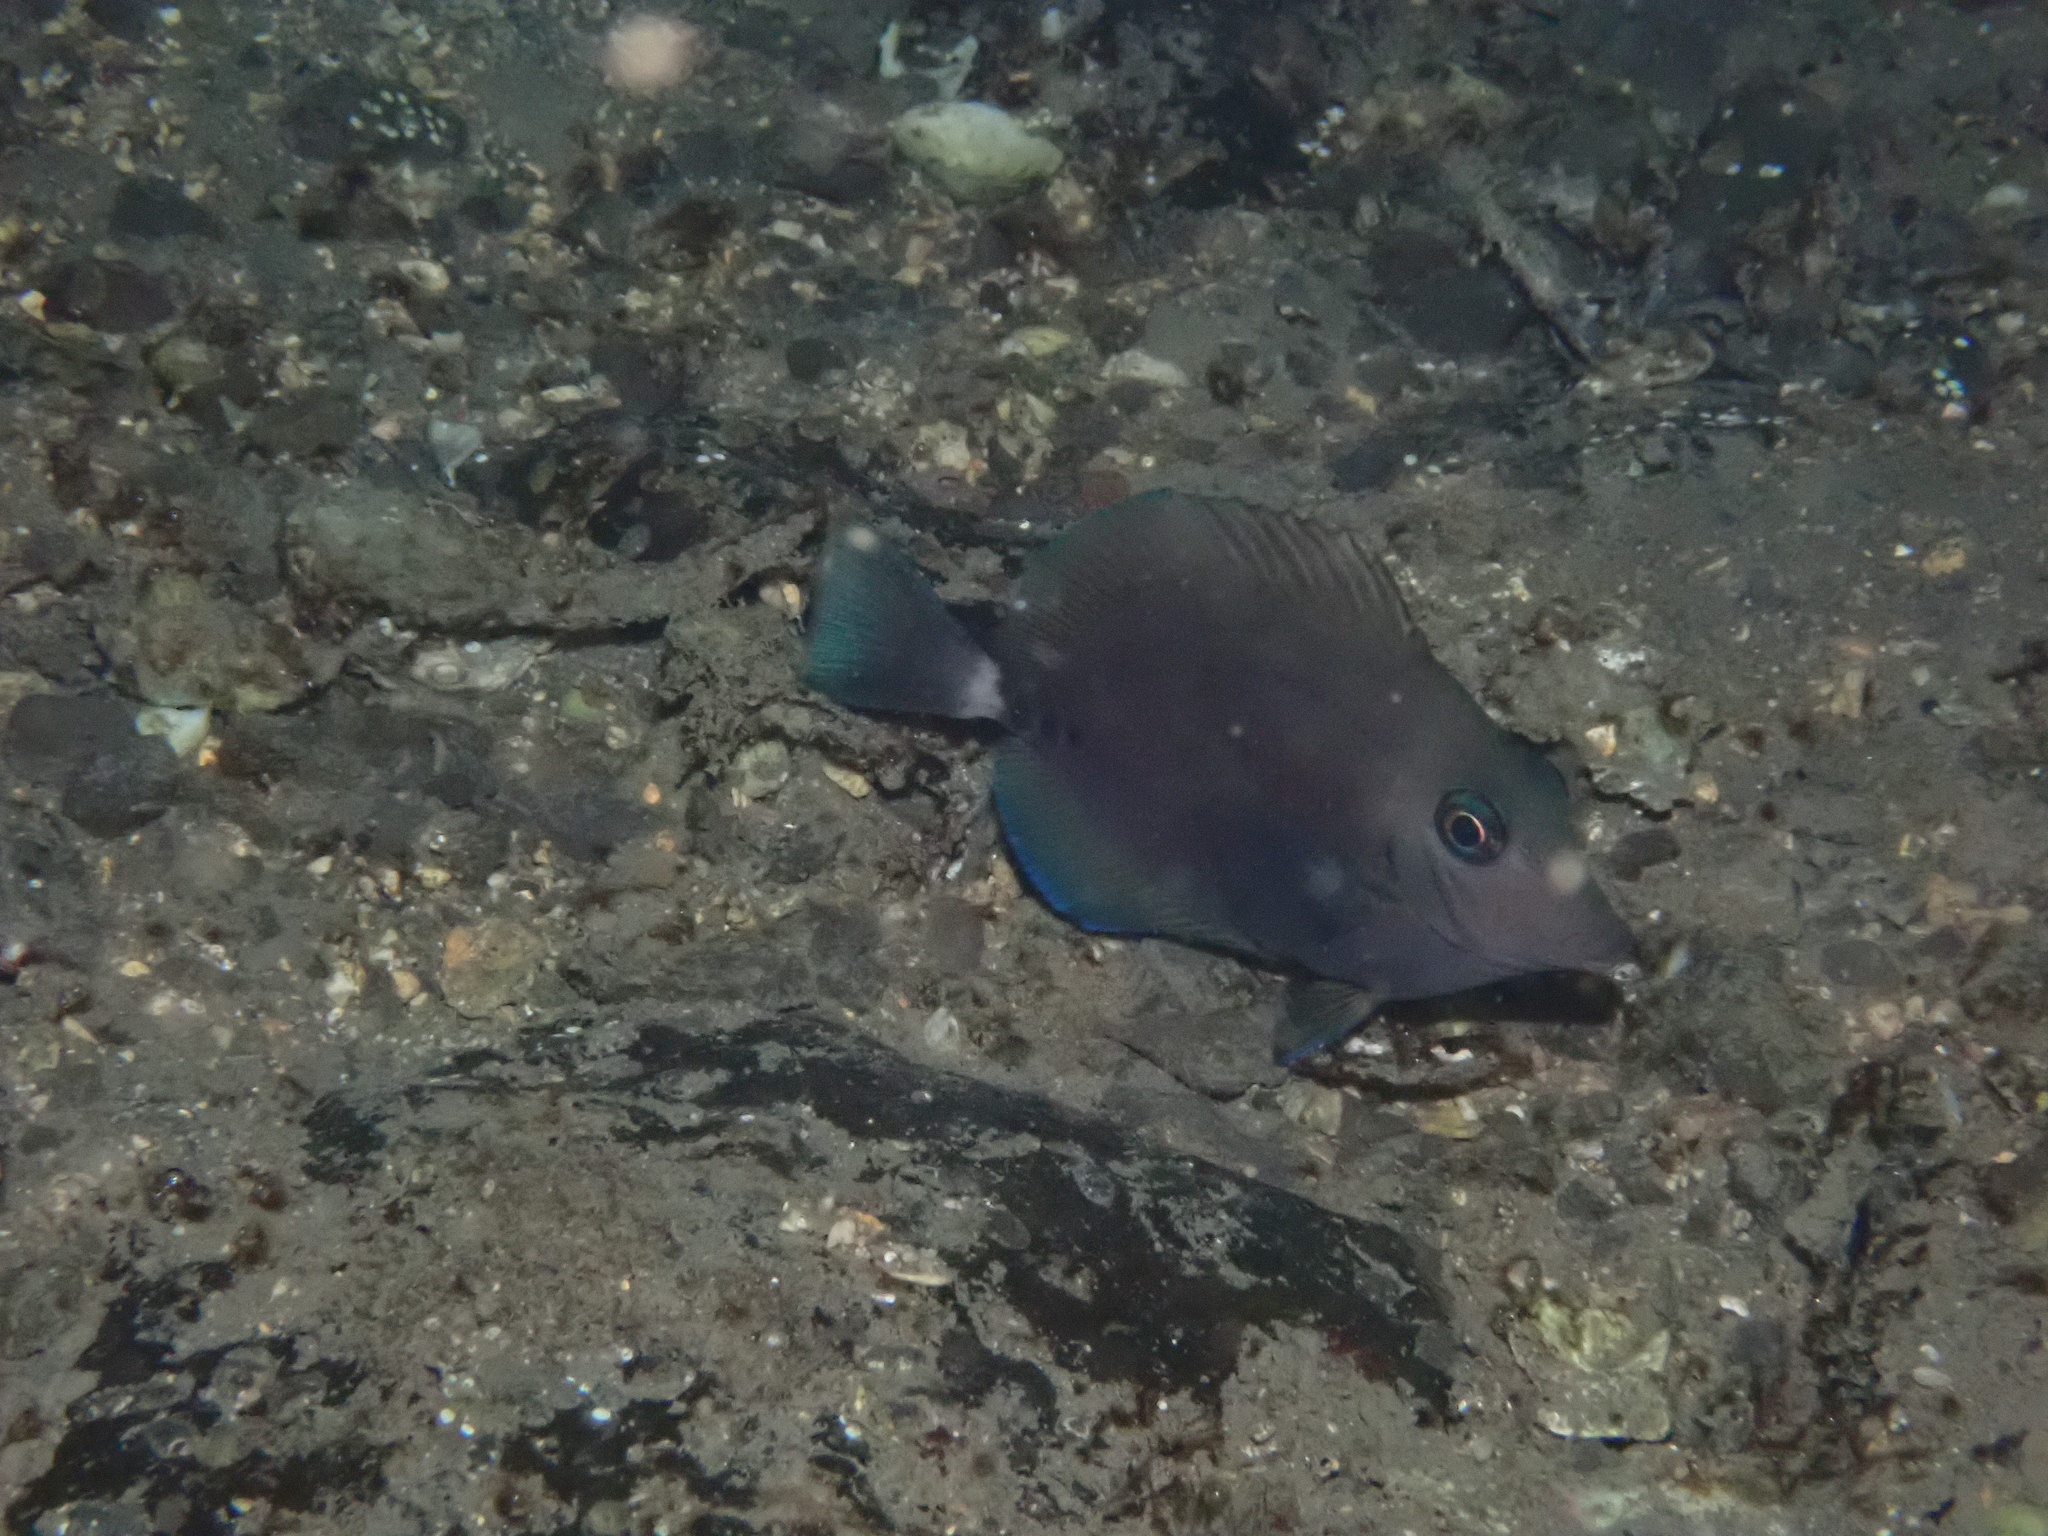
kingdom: Animalia
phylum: Chordata
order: Perciformes
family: Acanthuridae
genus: Prionurus
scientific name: Prionurus scalprum
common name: Japanese sawtail
